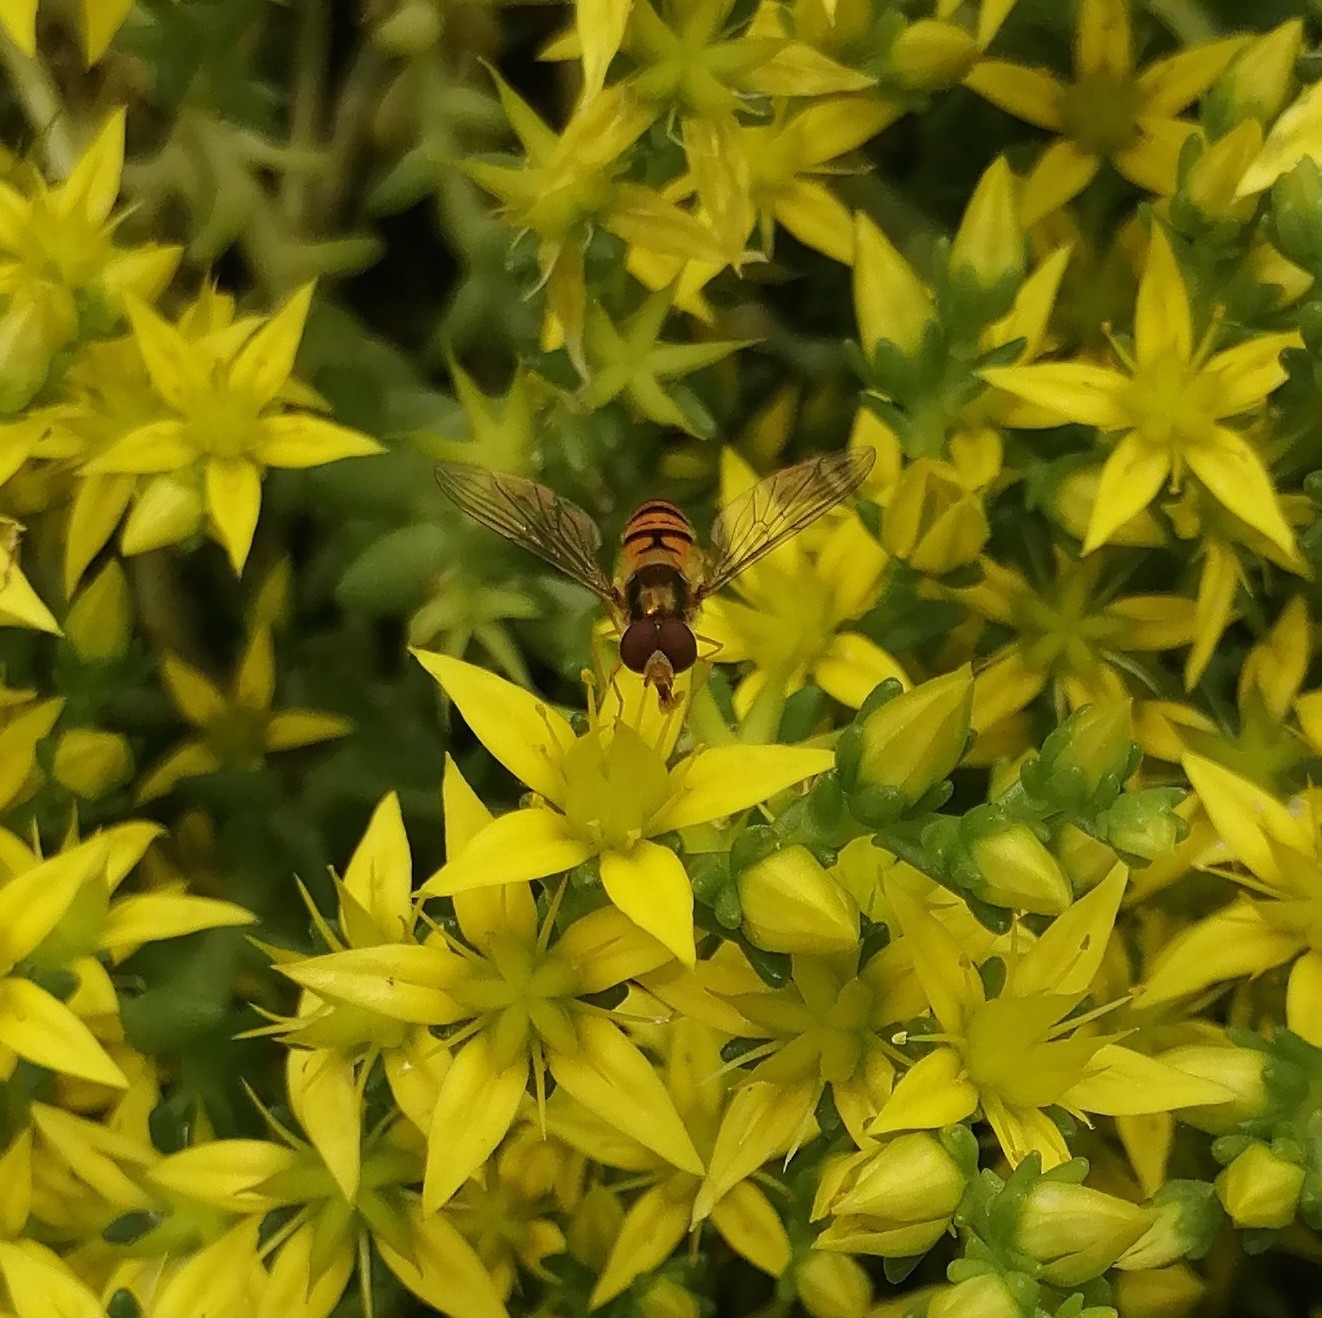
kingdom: Animalia
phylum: Arthropoda
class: Insecta
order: Diptera
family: Syrphidae
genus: Episyrphus
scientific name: Episyrphus balteatus
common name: Marmalade hoverfly
